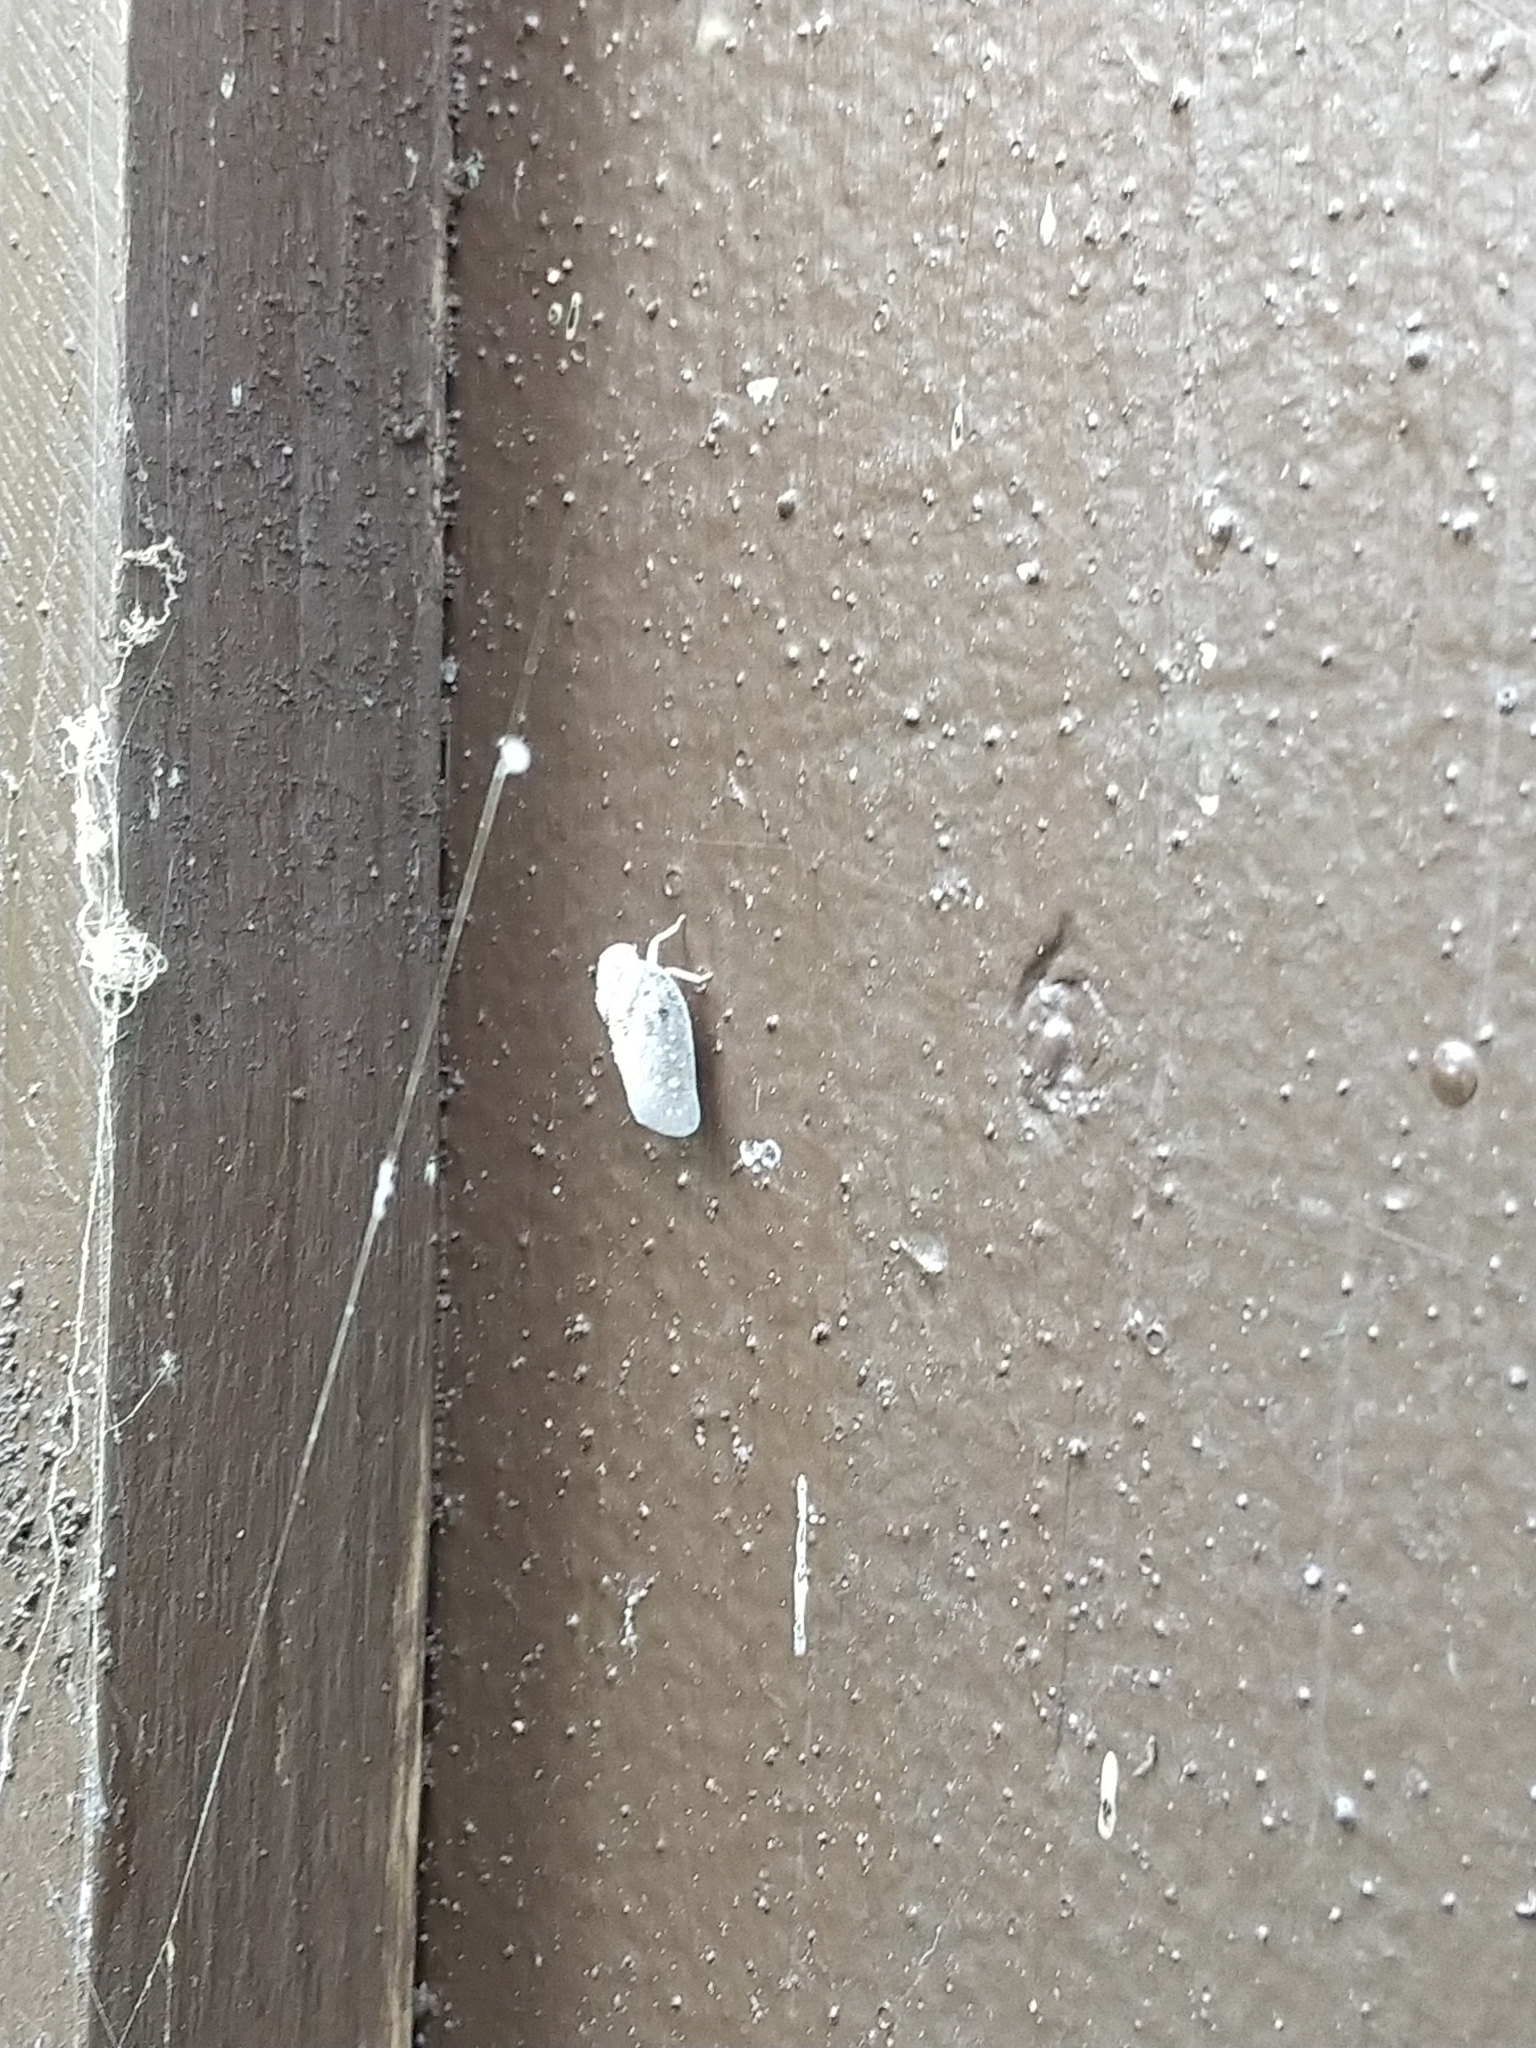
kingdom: Animalia
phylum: Arthropoda
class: Insecta
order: Hemiptera
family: Flatidae
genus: Metcalfa
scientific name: Metcalfa pruinosa
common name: Citrus flatid planthopper
